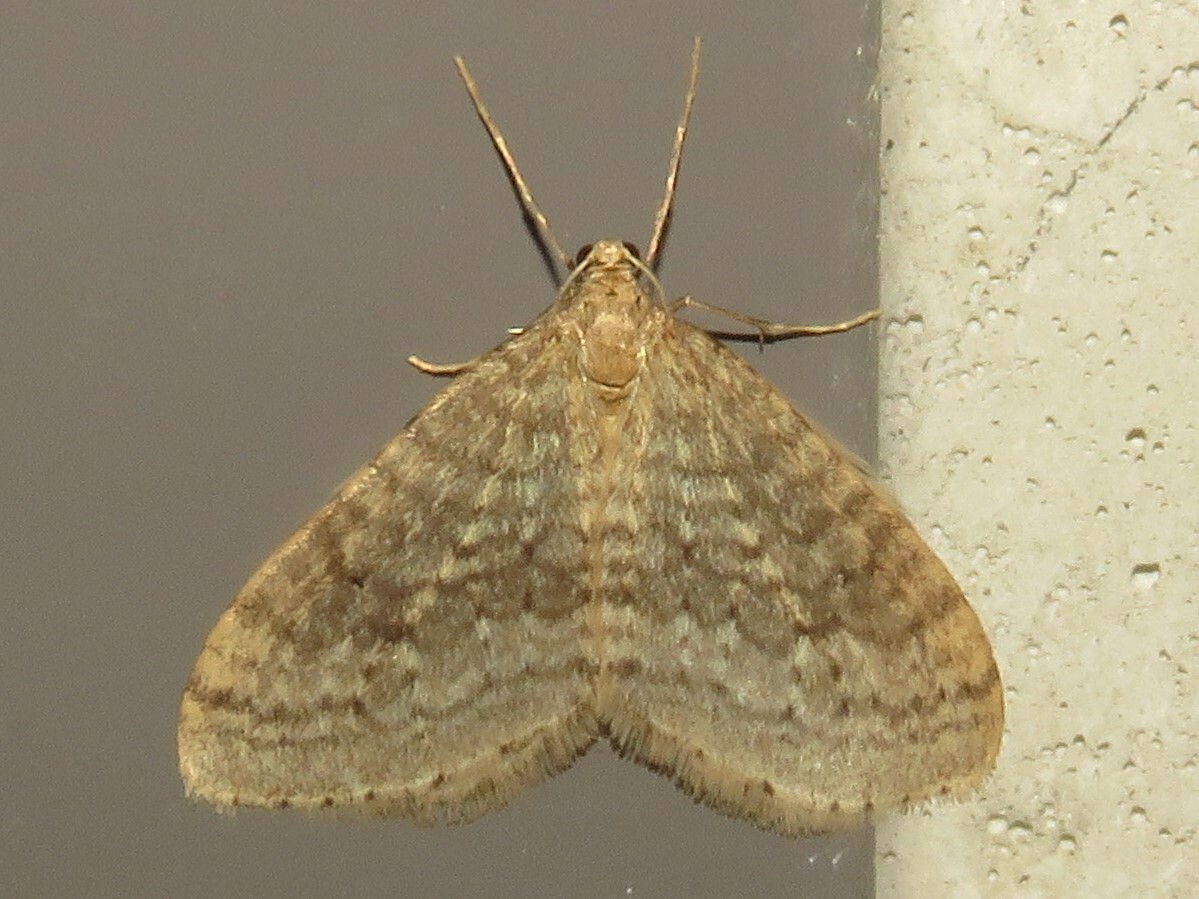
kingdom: Animalia
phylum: Arthropoda
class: Insecta
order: Lepidoptera
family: Geometridae
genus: Operophtera
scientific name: Operophtera bruceata
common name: Bruce spanworm
